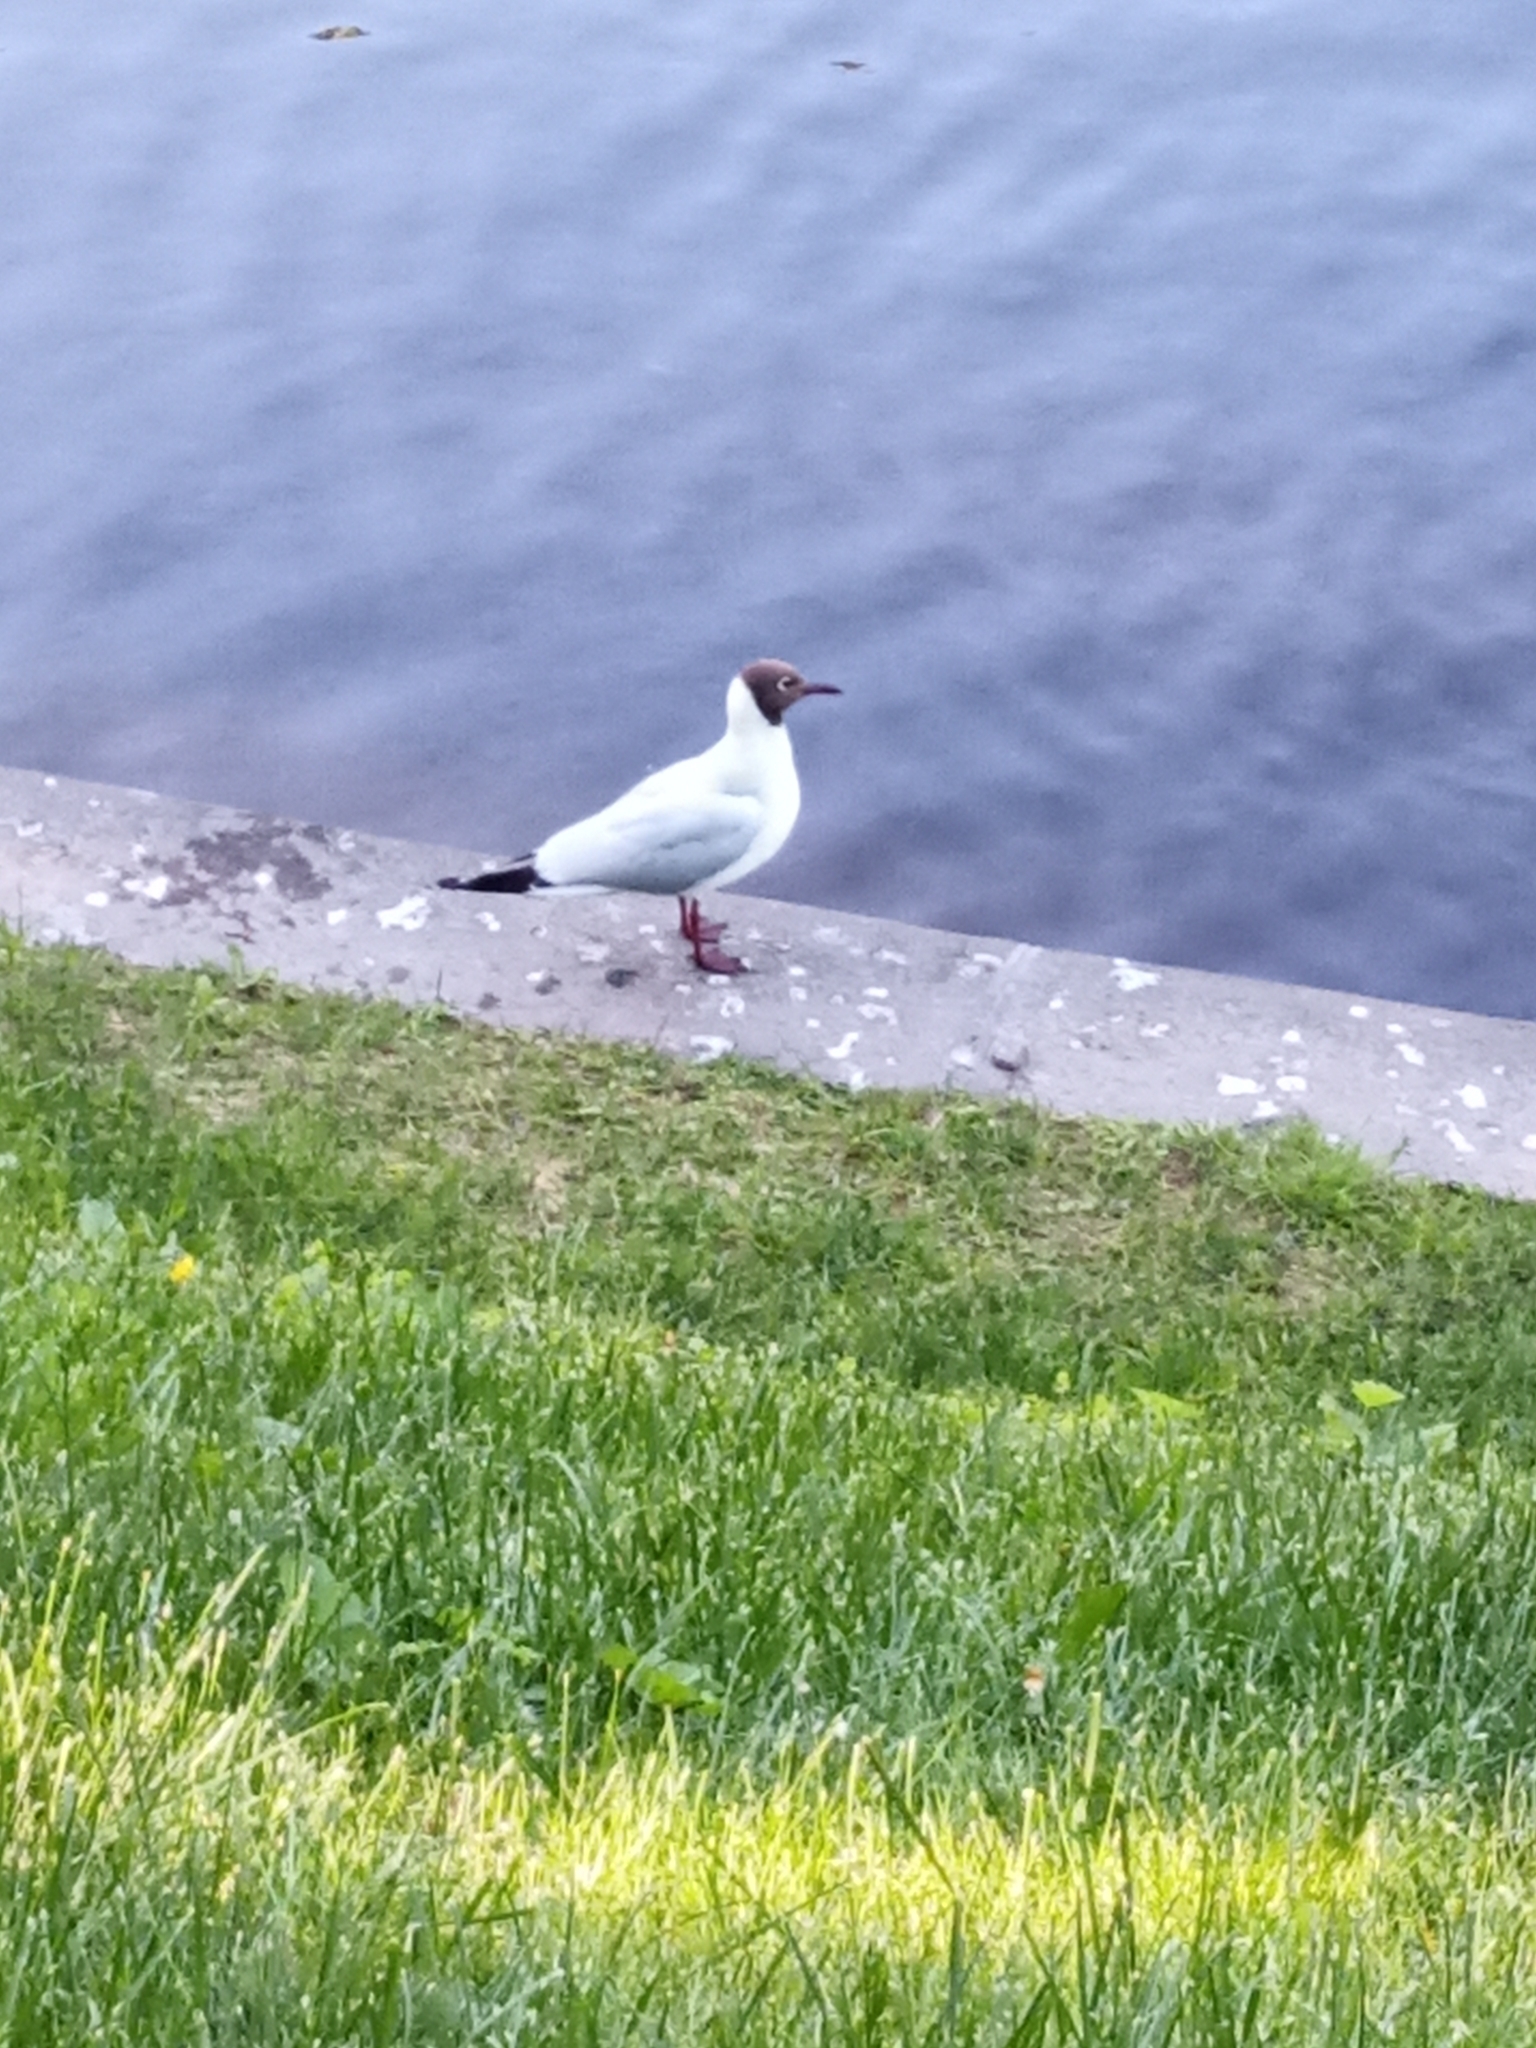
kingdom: Animalia
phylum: Chordata
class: Aves
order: Charadriiformes
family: Laridae
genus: Chroicocephalus
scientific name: Chroicocephalus ridibundus
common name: Black-headed gull
